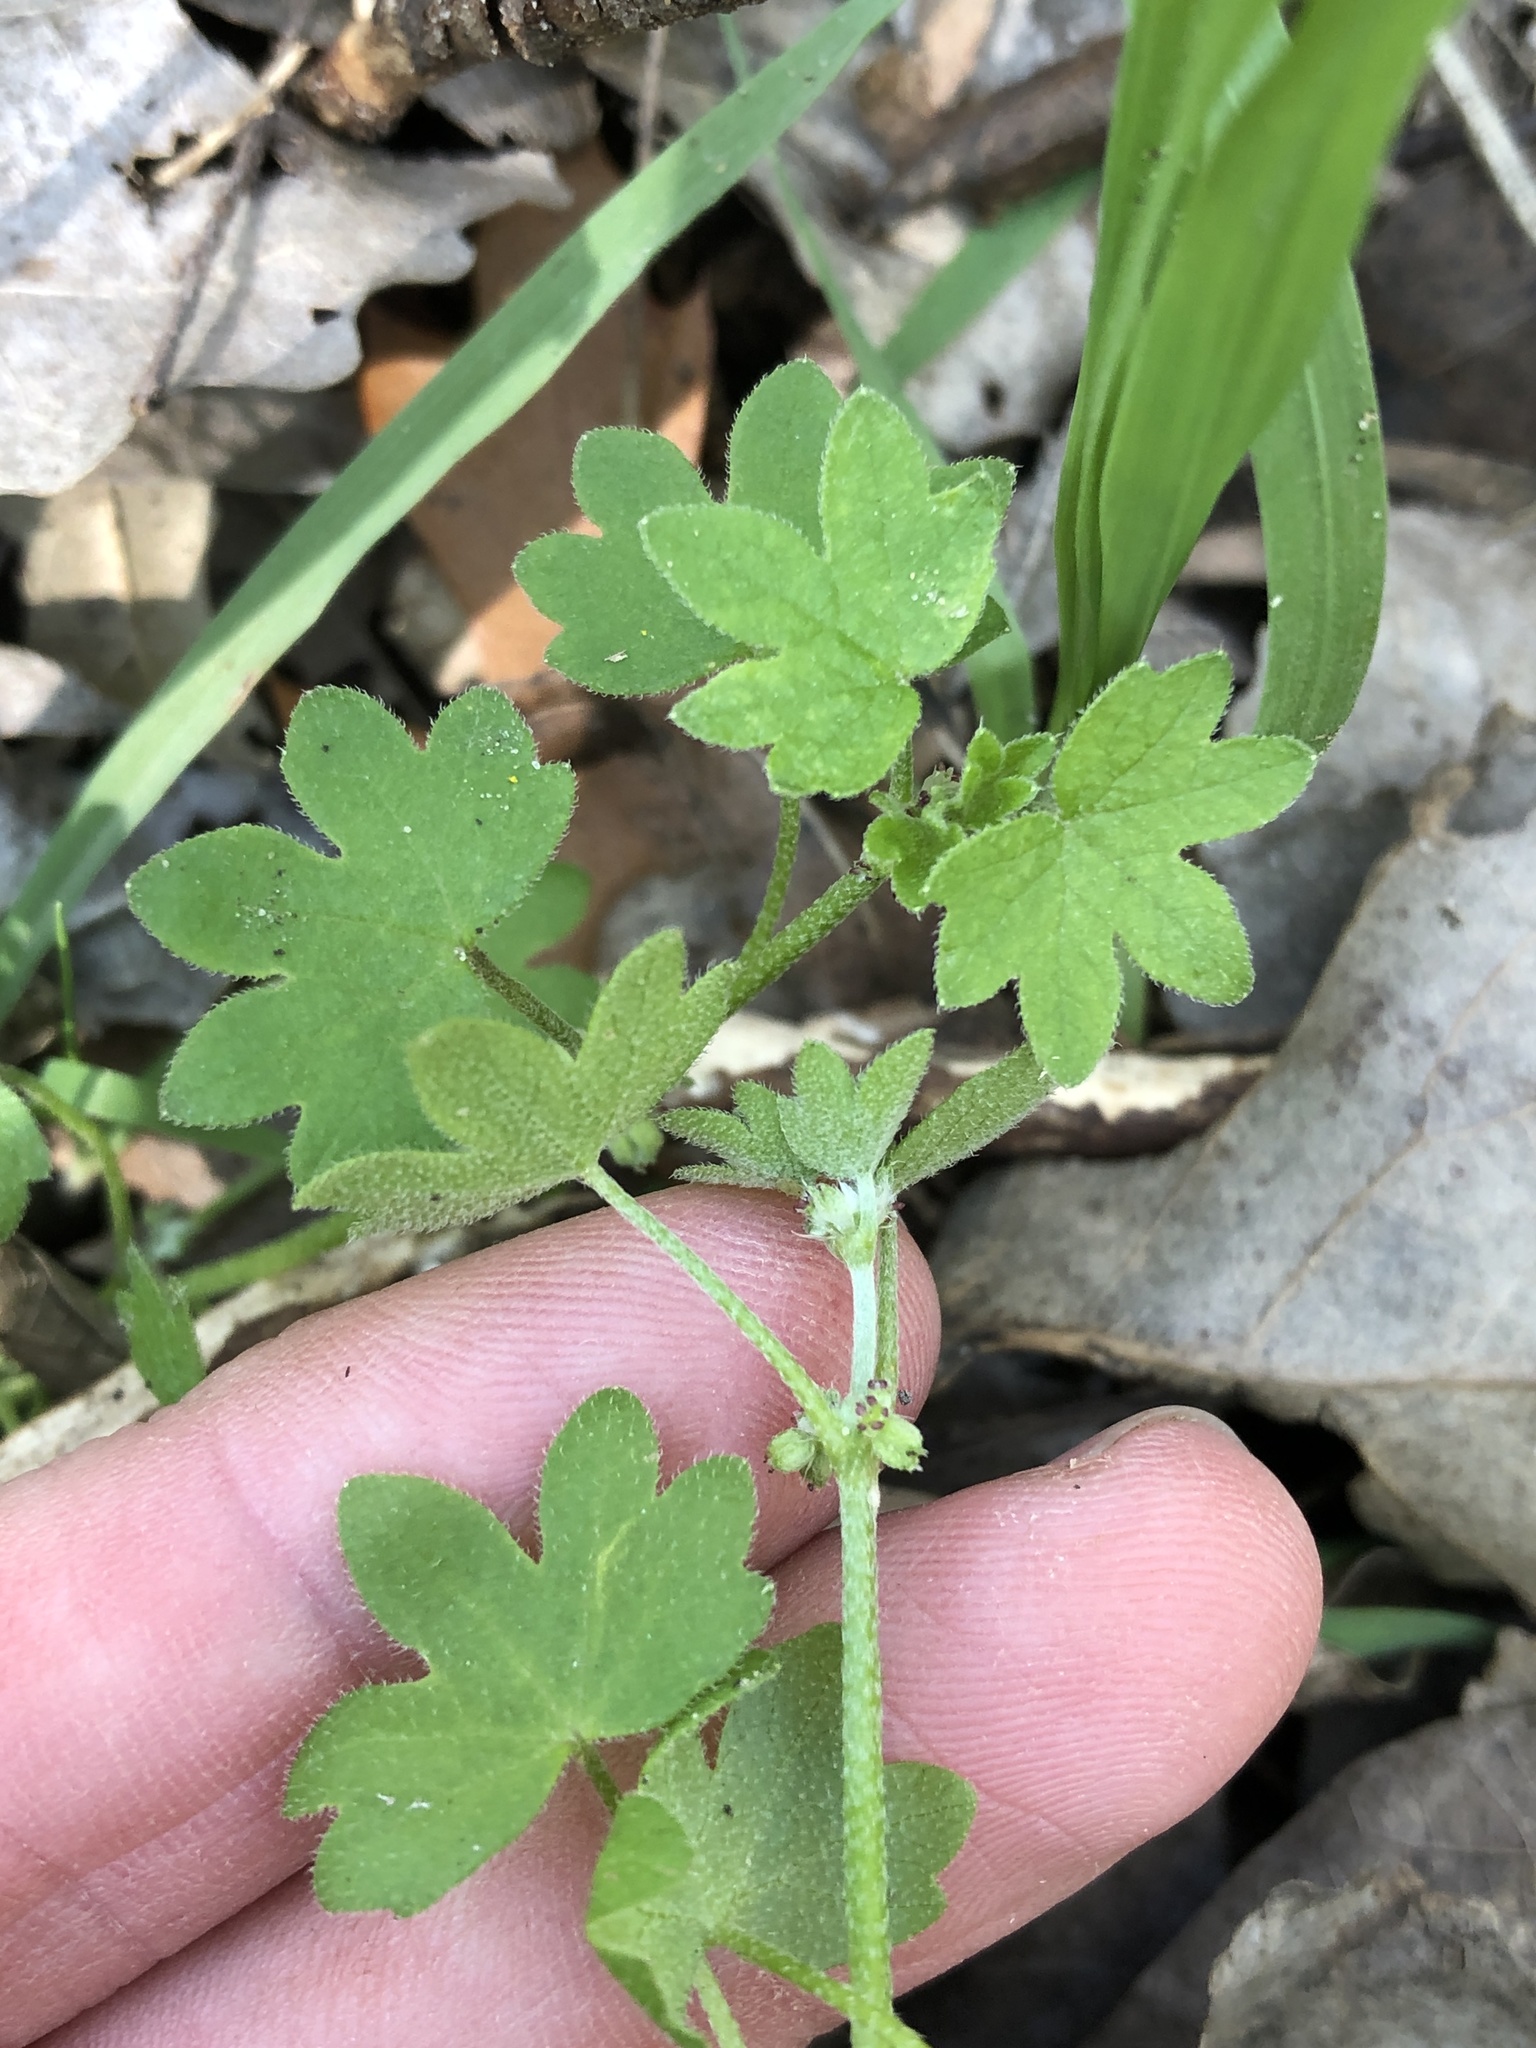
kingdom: Plantae
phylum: Tracheophyta
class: Magnoliopsida
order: Apiales
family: Apiaceae
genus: Bowlesia
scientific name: Bowlesia incana
